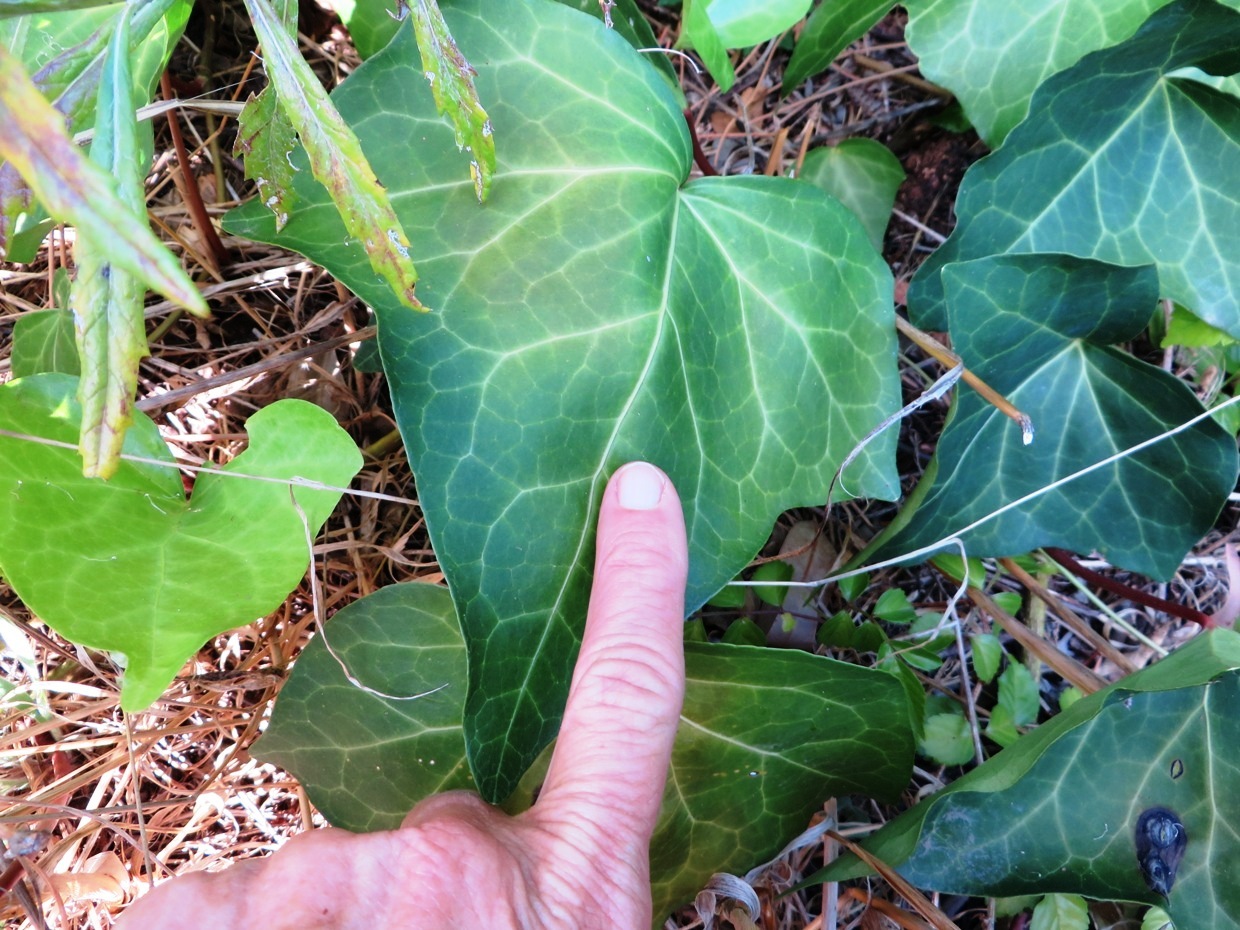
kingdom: Plantae
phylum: Tracheophyta
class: Magnoliopsida
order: Apiales
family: Araliaceae
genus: Hedera
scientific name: Hedera canariensis
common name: Madeira ivy
